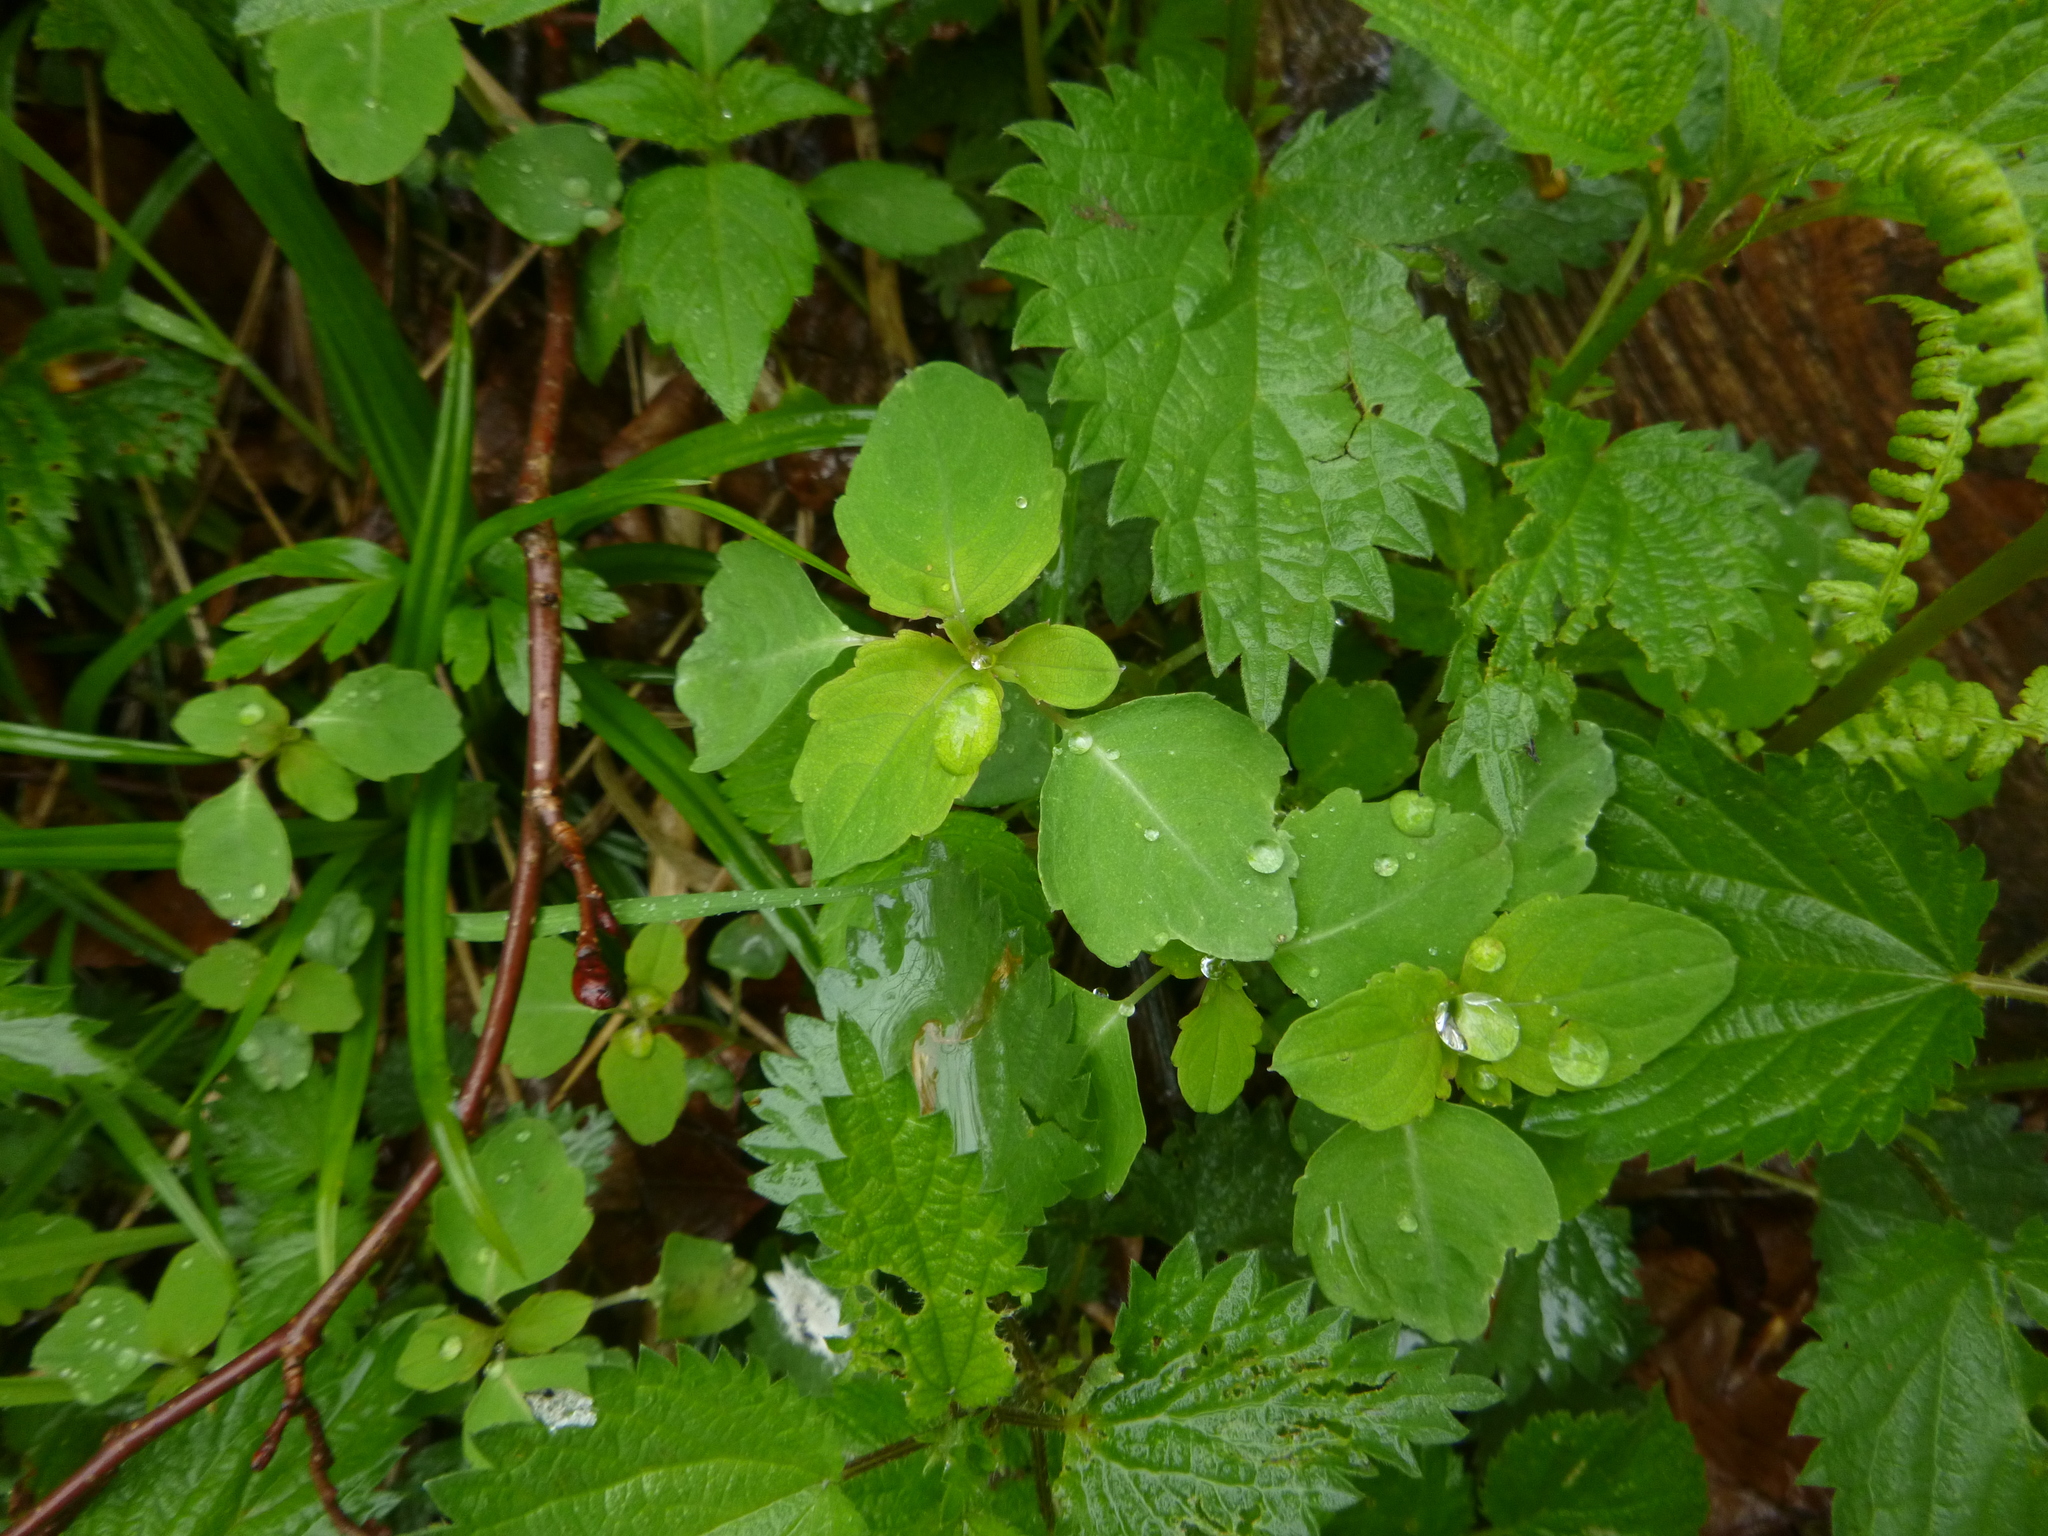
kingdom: Plantae
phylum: Tracheophyta
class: Magnoliopsida
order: Ericales
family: Balsaminaceae
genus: Impatiens
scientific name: Impatiens noli-tangere
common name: Touch-me-not balsam
